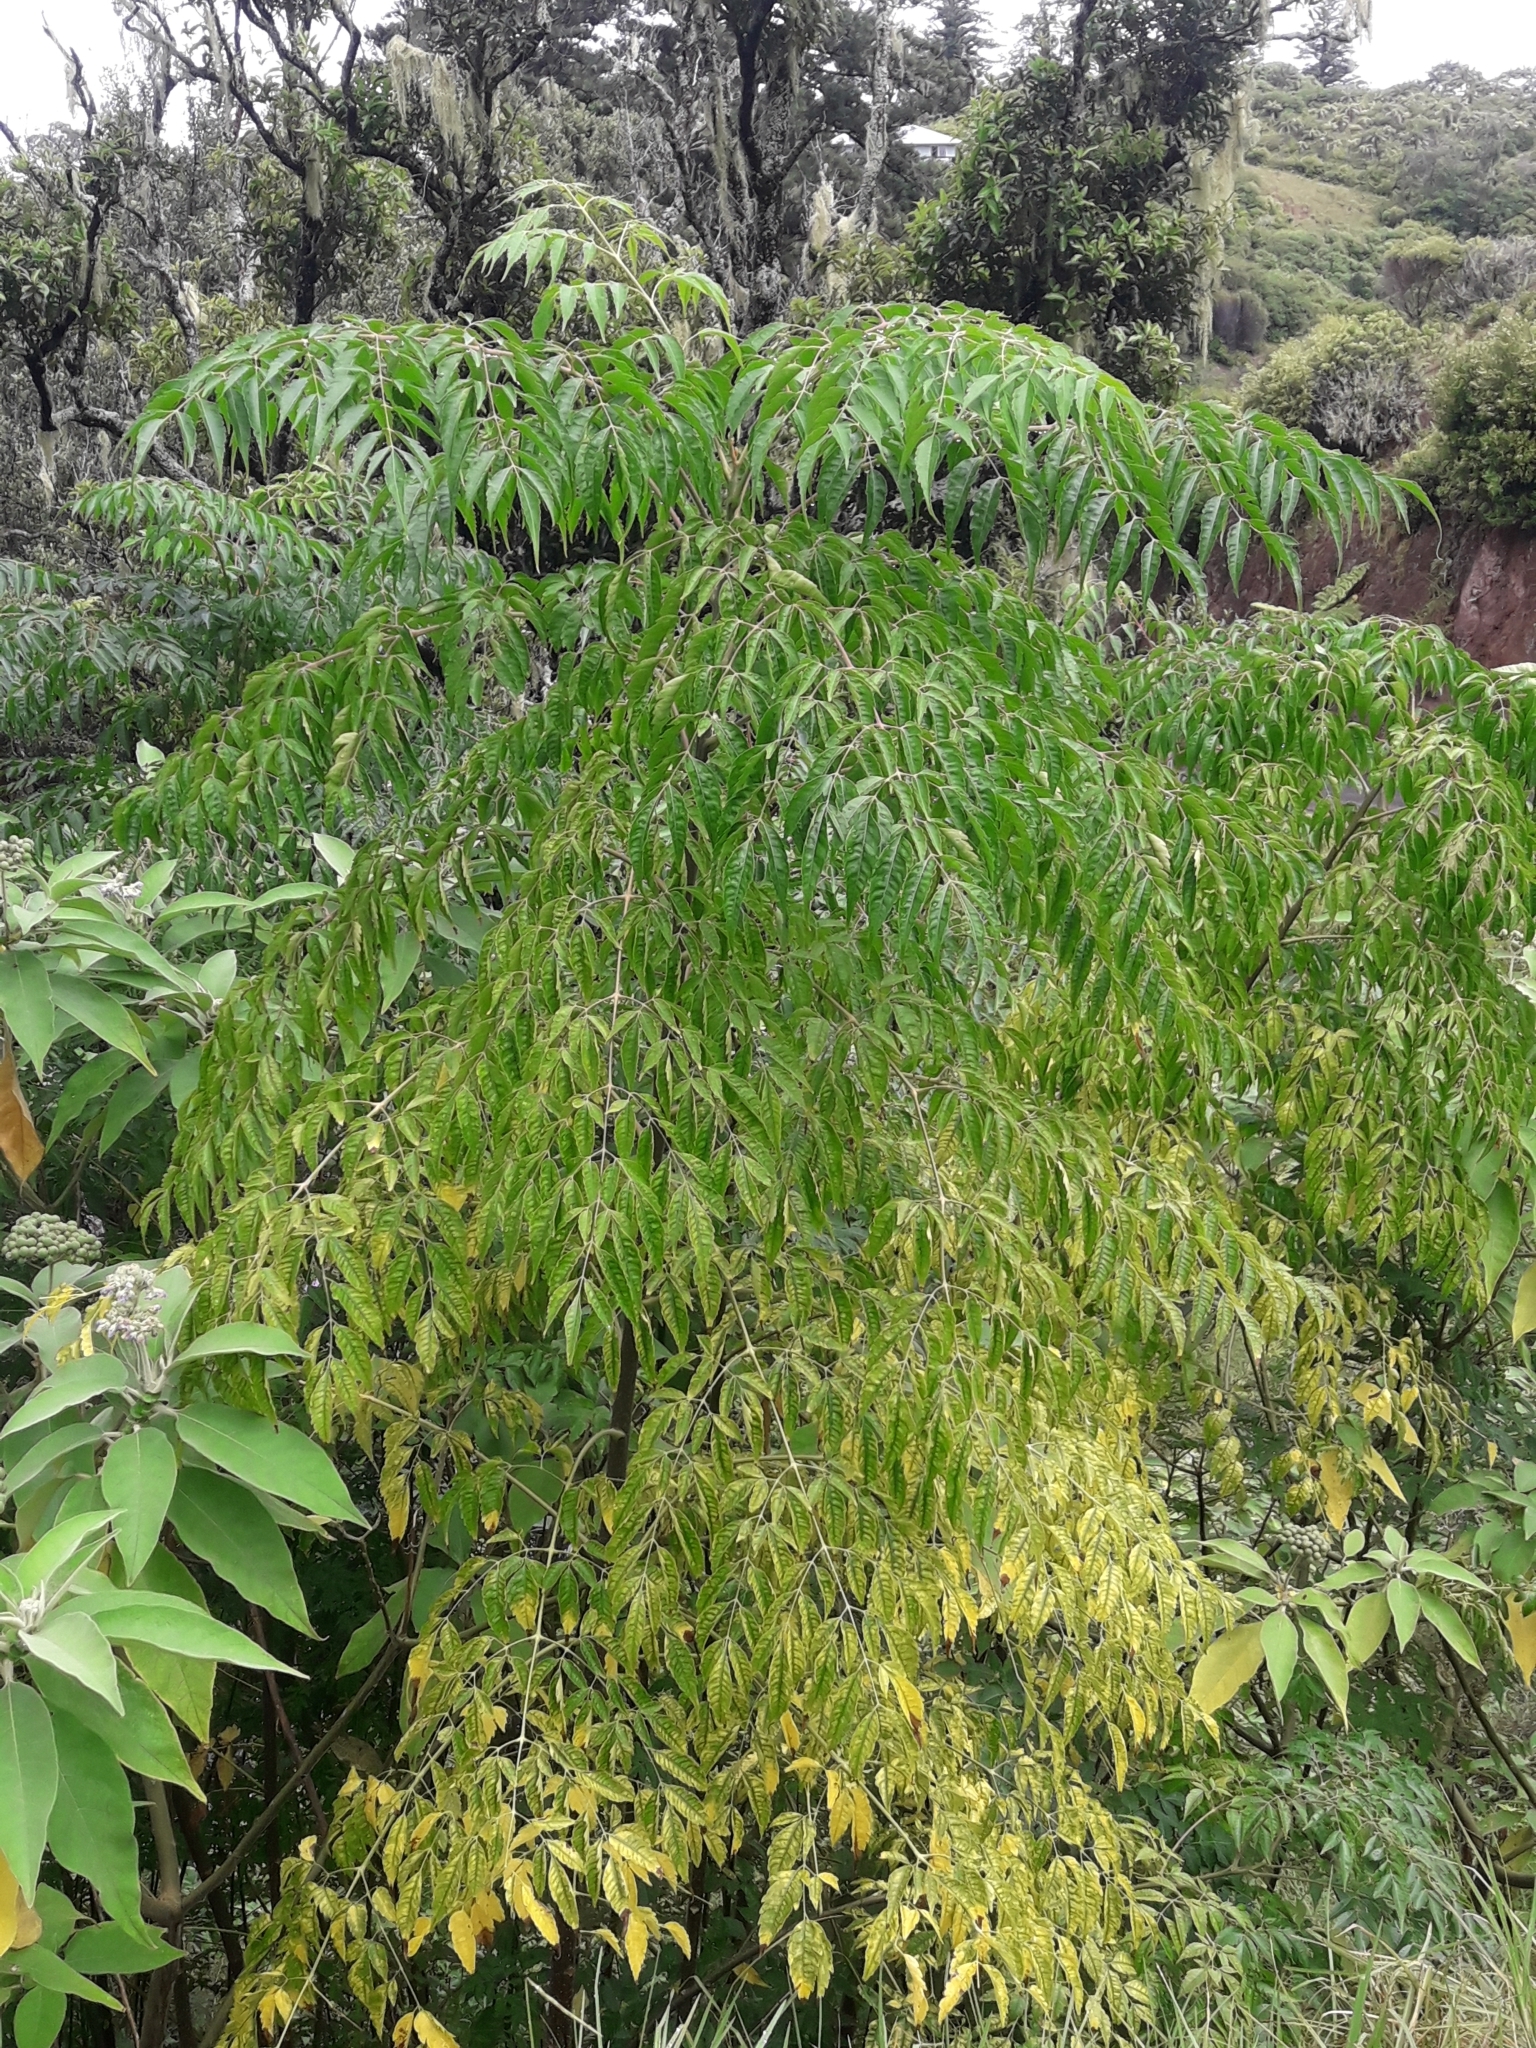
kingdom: Plantae
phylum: Tracheophyta
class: Magnoliopsida
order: Sapindales
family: Meliaceae
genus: Melia
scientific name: Melia azedarach
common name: Chinaberrytree
